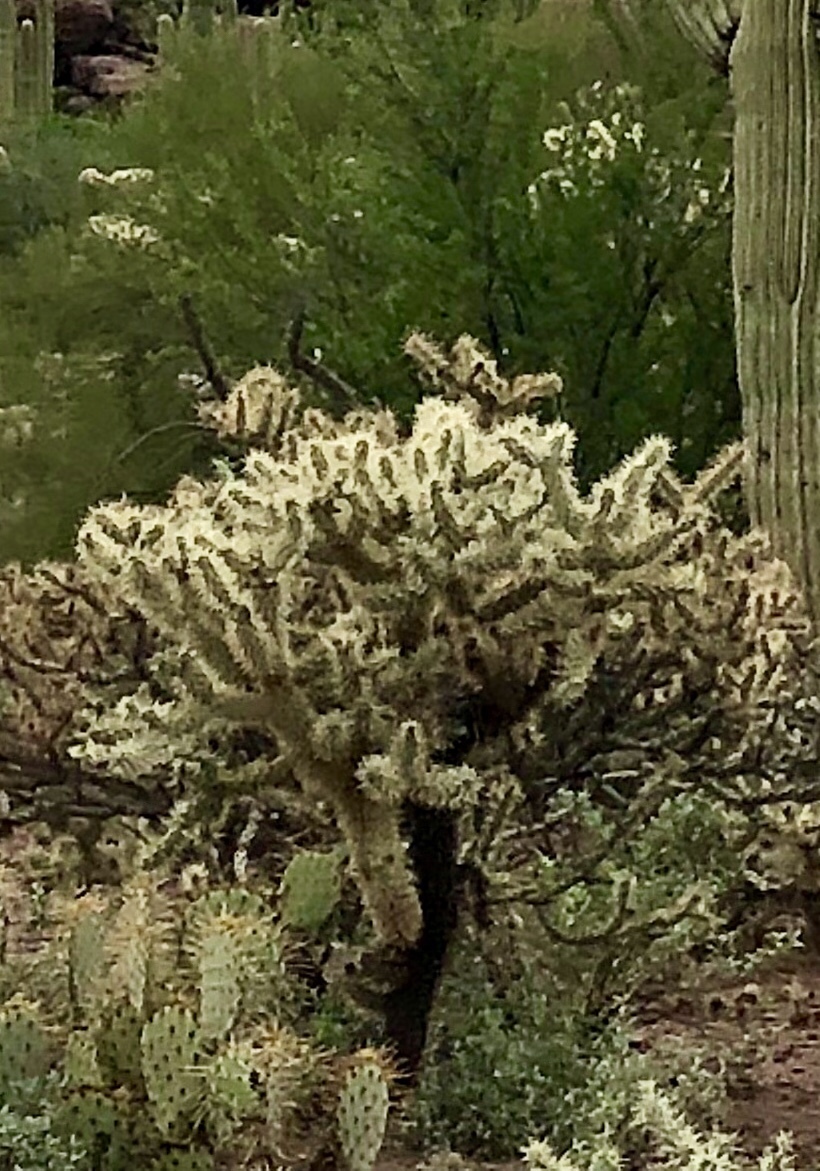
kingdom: Plantae
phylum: Tracheophyta
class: Magnoliopsida
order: Caryophyllales
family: Cactaceae
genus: Cylindropuntia
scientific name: Cylindropuntia fulgida
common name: Jumping cholla
